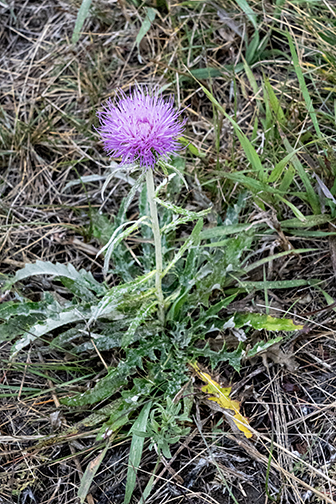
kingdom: Plantae
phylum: Tracheophyta
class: Magnoliopsida
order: Asterales
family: Asteraceae
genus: Cirsium
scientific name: Cirsium flodmanii
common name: Flodman's thistle
